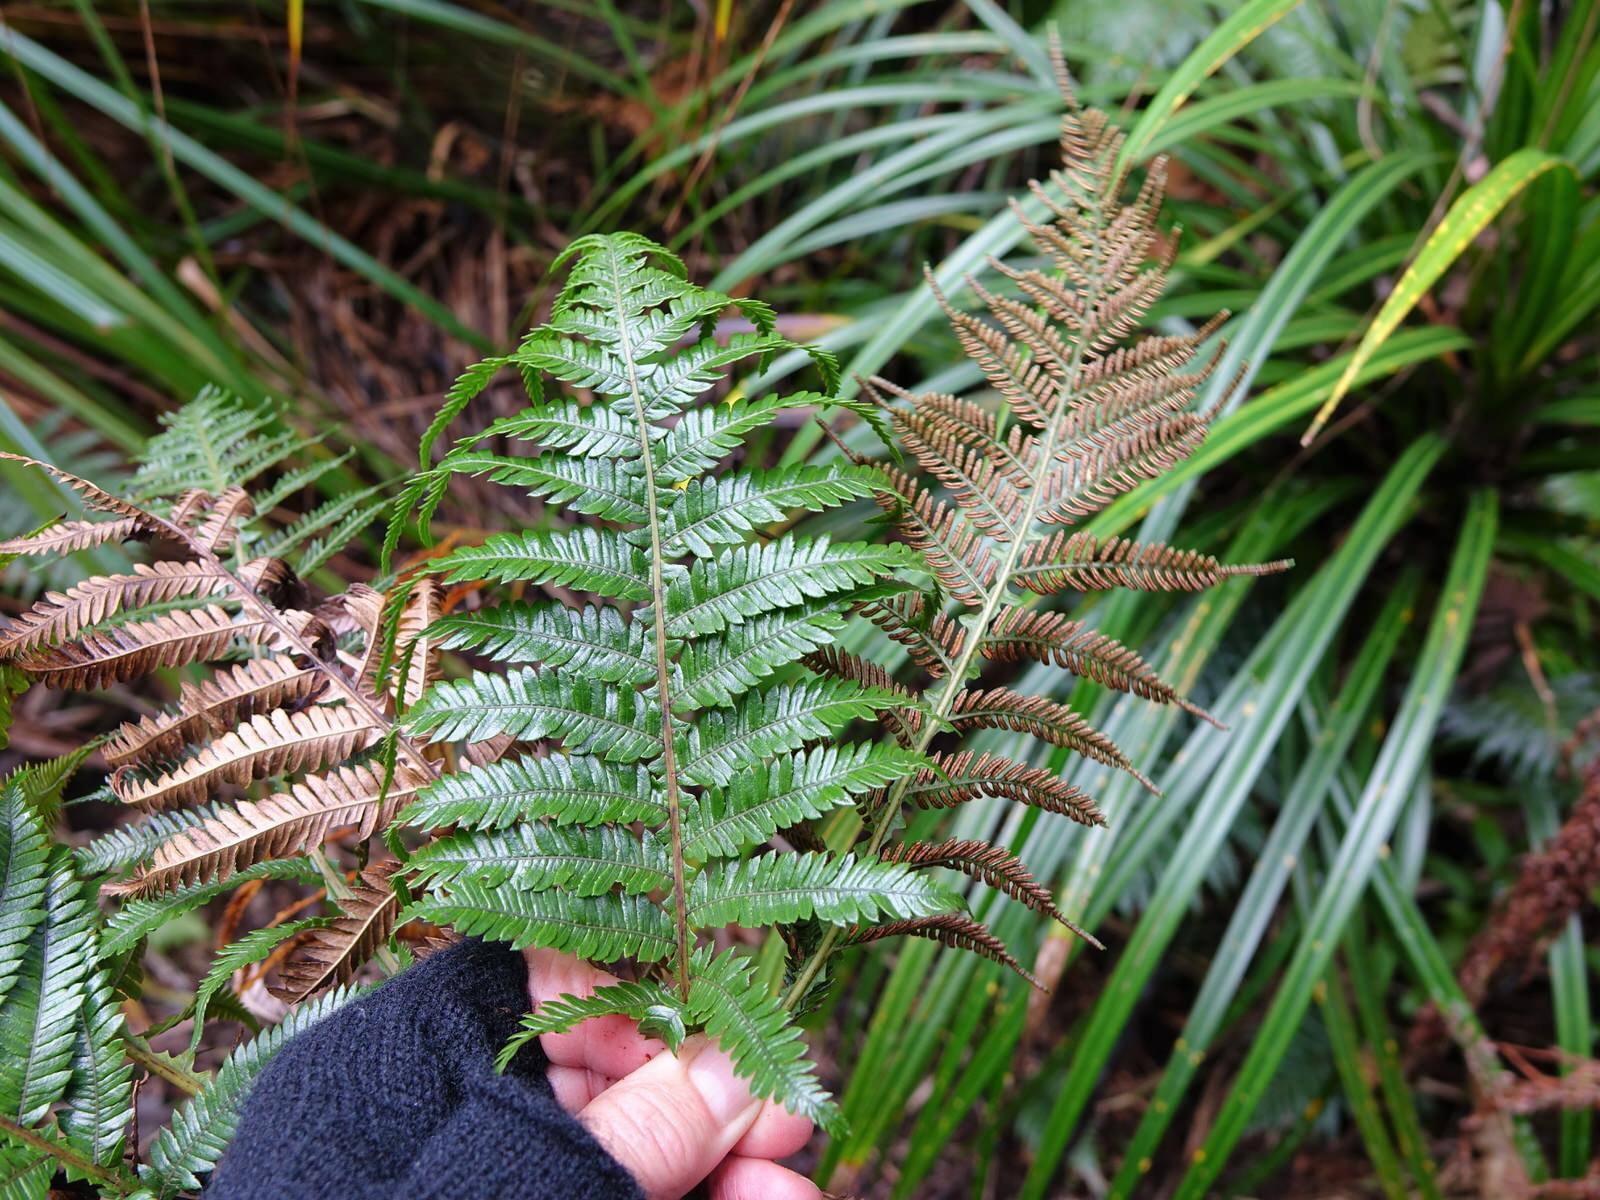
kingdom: Plantae
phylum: Tracheophyta
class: Polypodiopsida
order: Polypodiales
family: Blechnaceae
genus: Diploblechnum
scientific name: Diploblechnum fraseri
